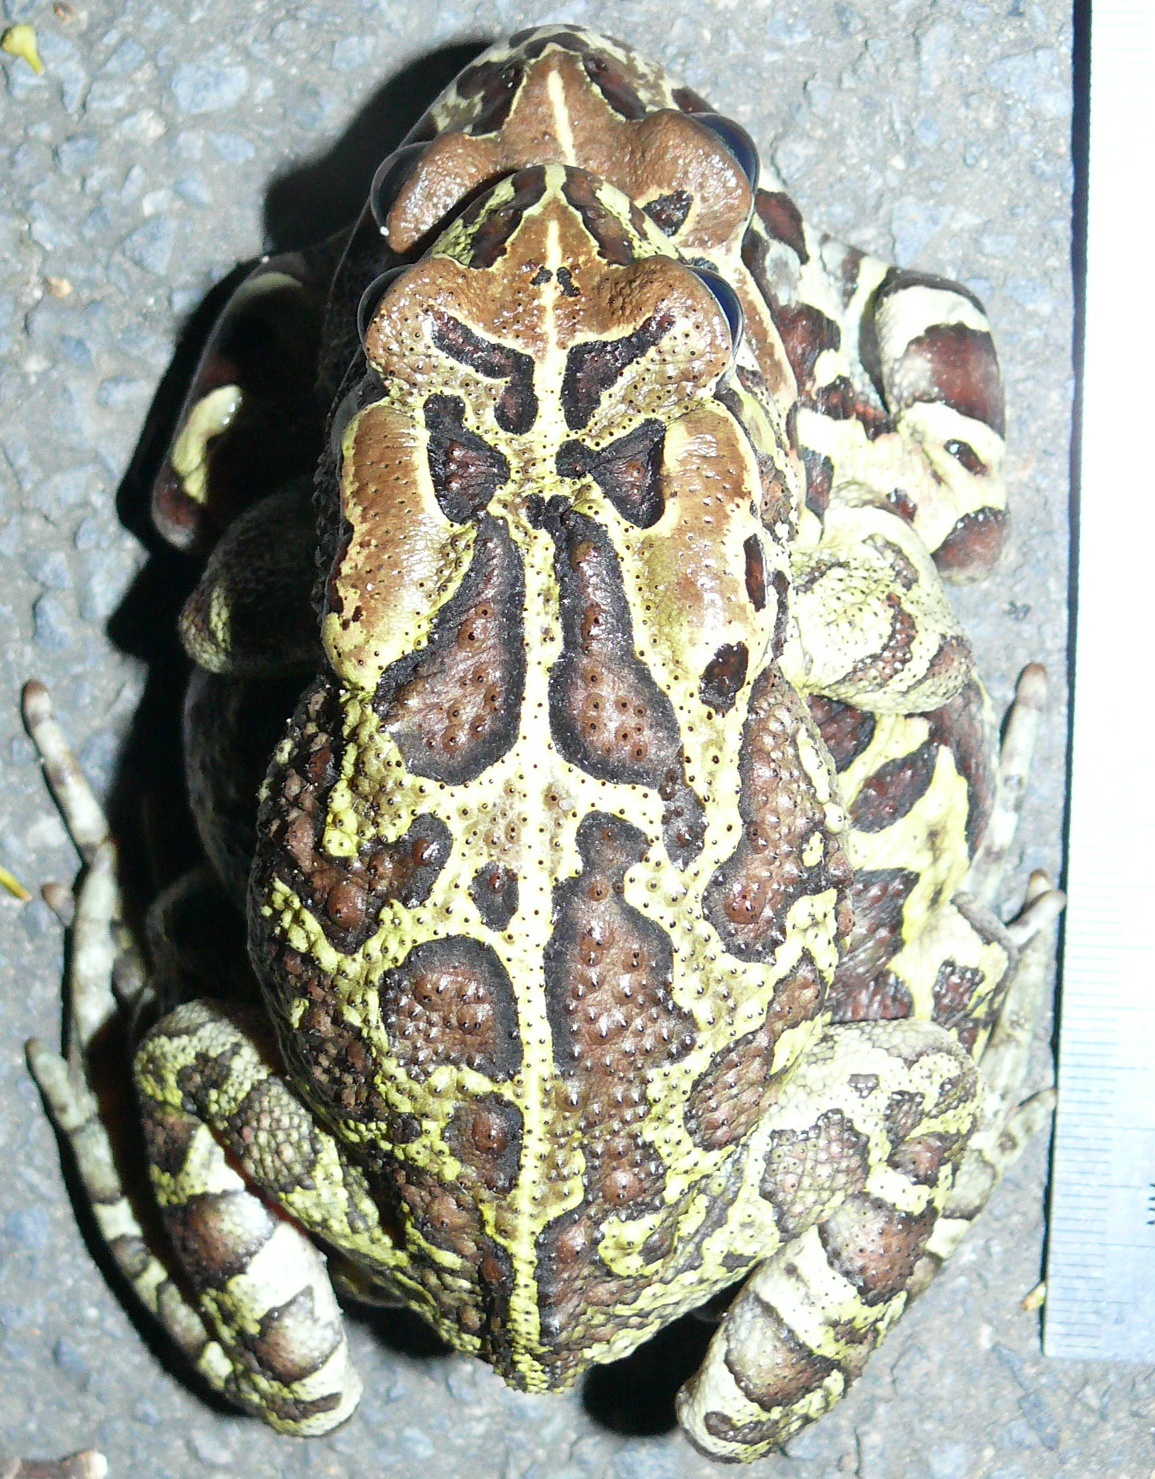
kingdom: Animalia
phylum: Chordata
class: Amphibia
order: Anura
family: Bufonidae
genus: Sclerophrys
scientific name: Sclerophrys pantherina
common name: Panther toad
